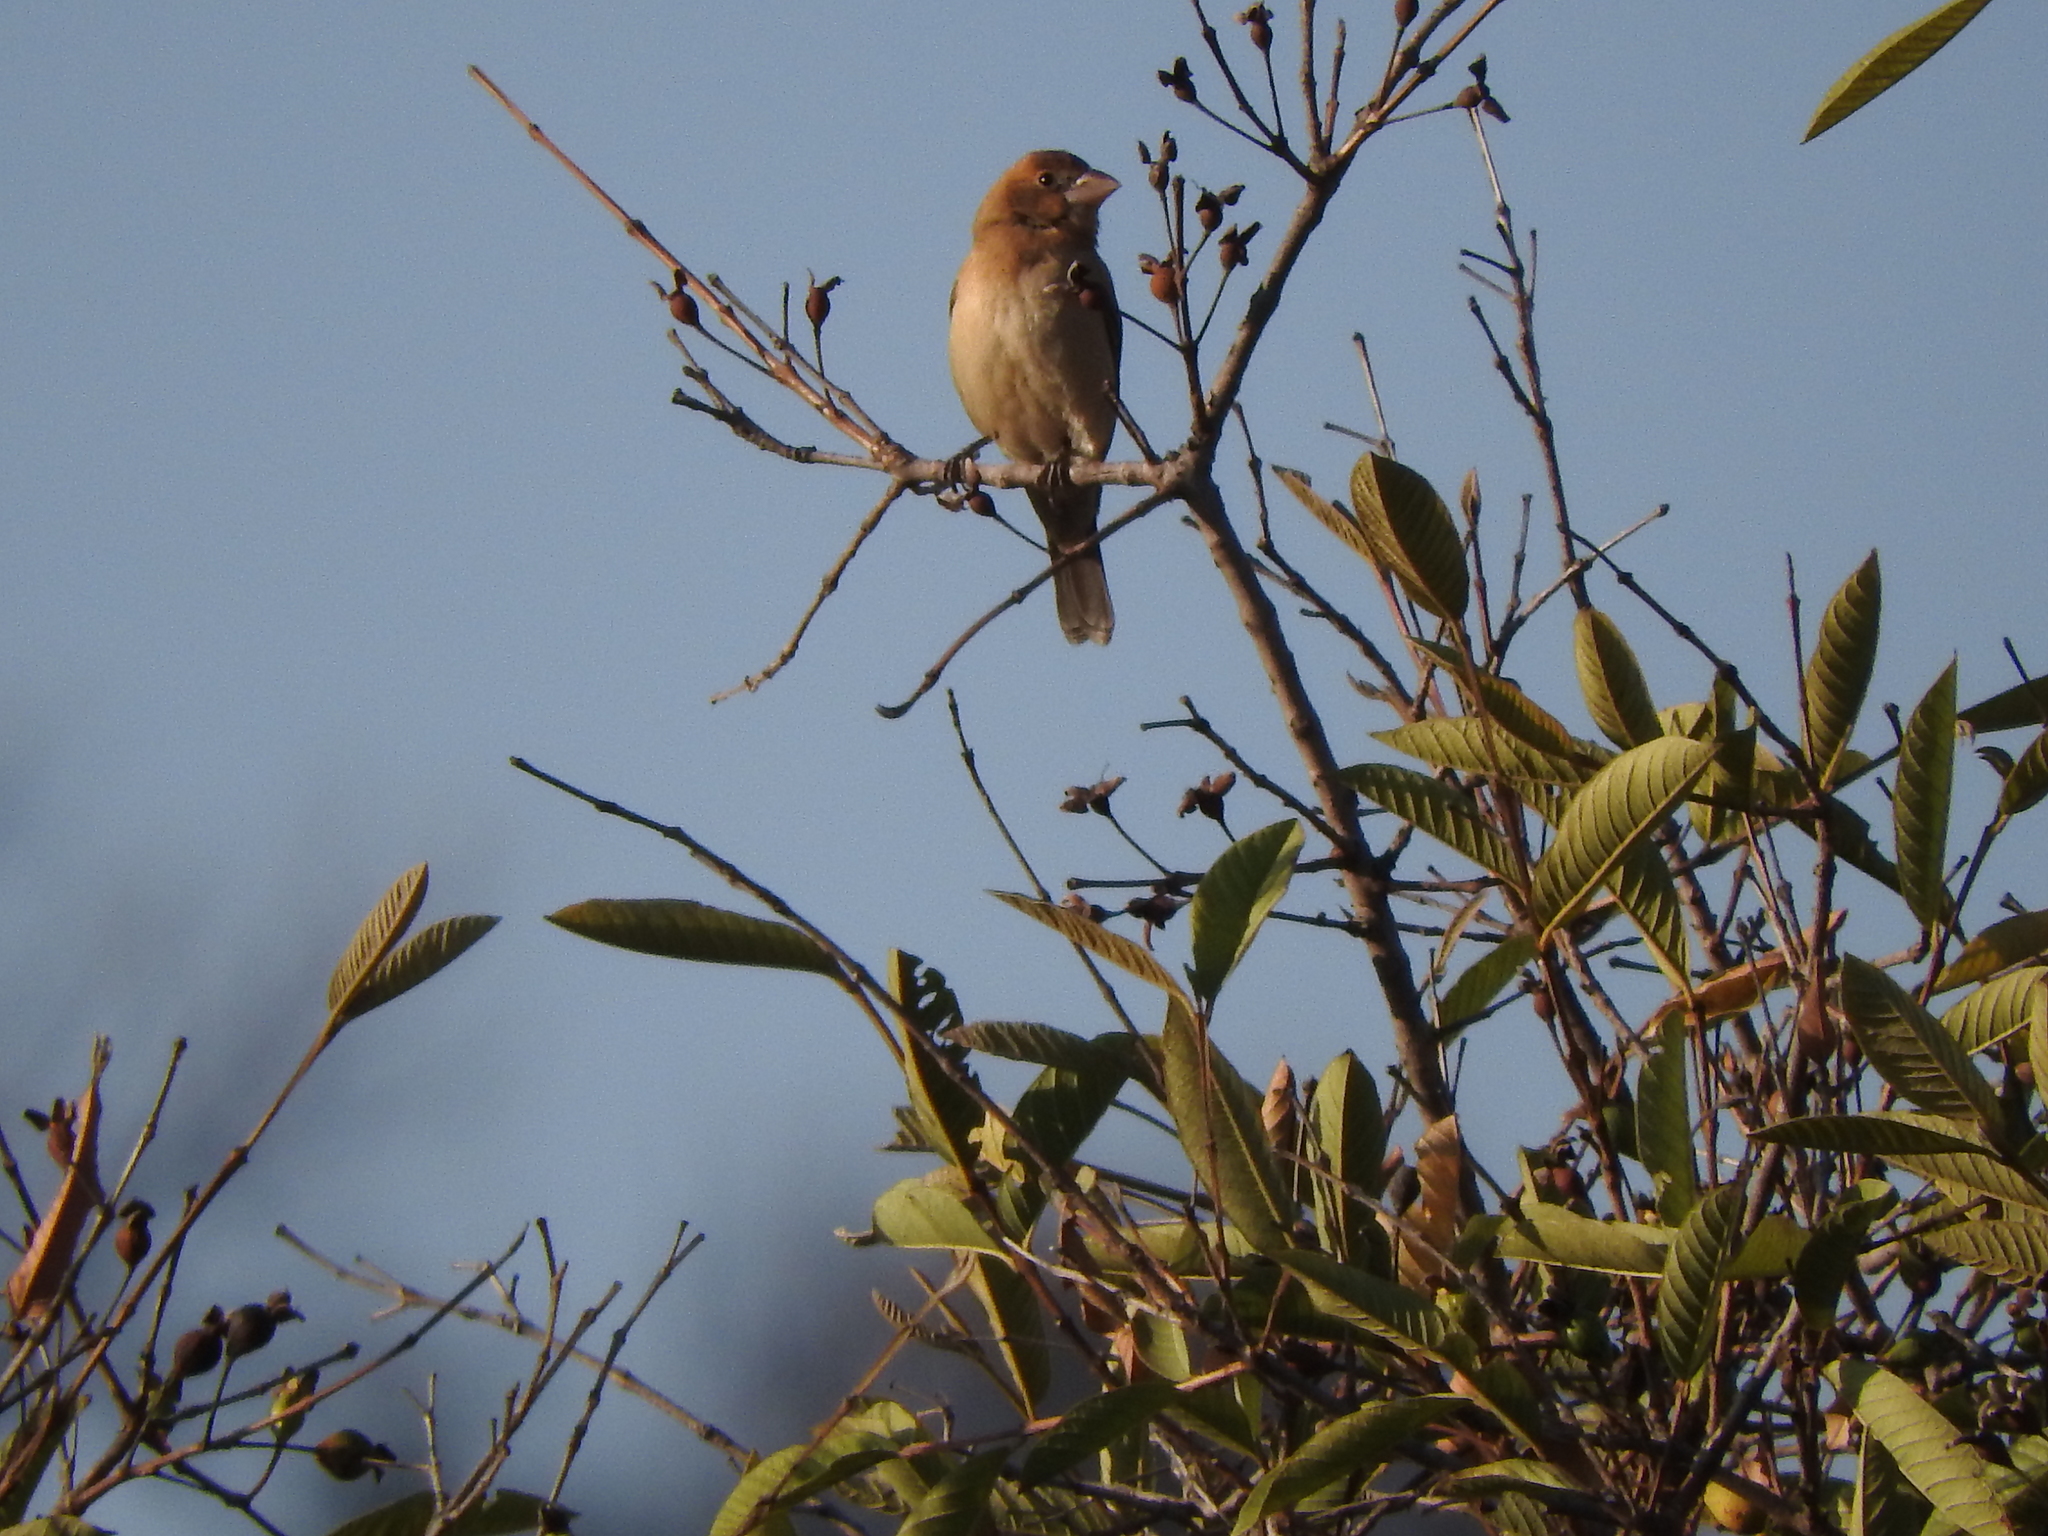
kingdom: Animalia
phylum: Chordata
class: Aves
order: Passeriformes
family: Cardinalidae
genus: Passerina
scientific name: Passerina caerulea
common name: Blue grosbeak
